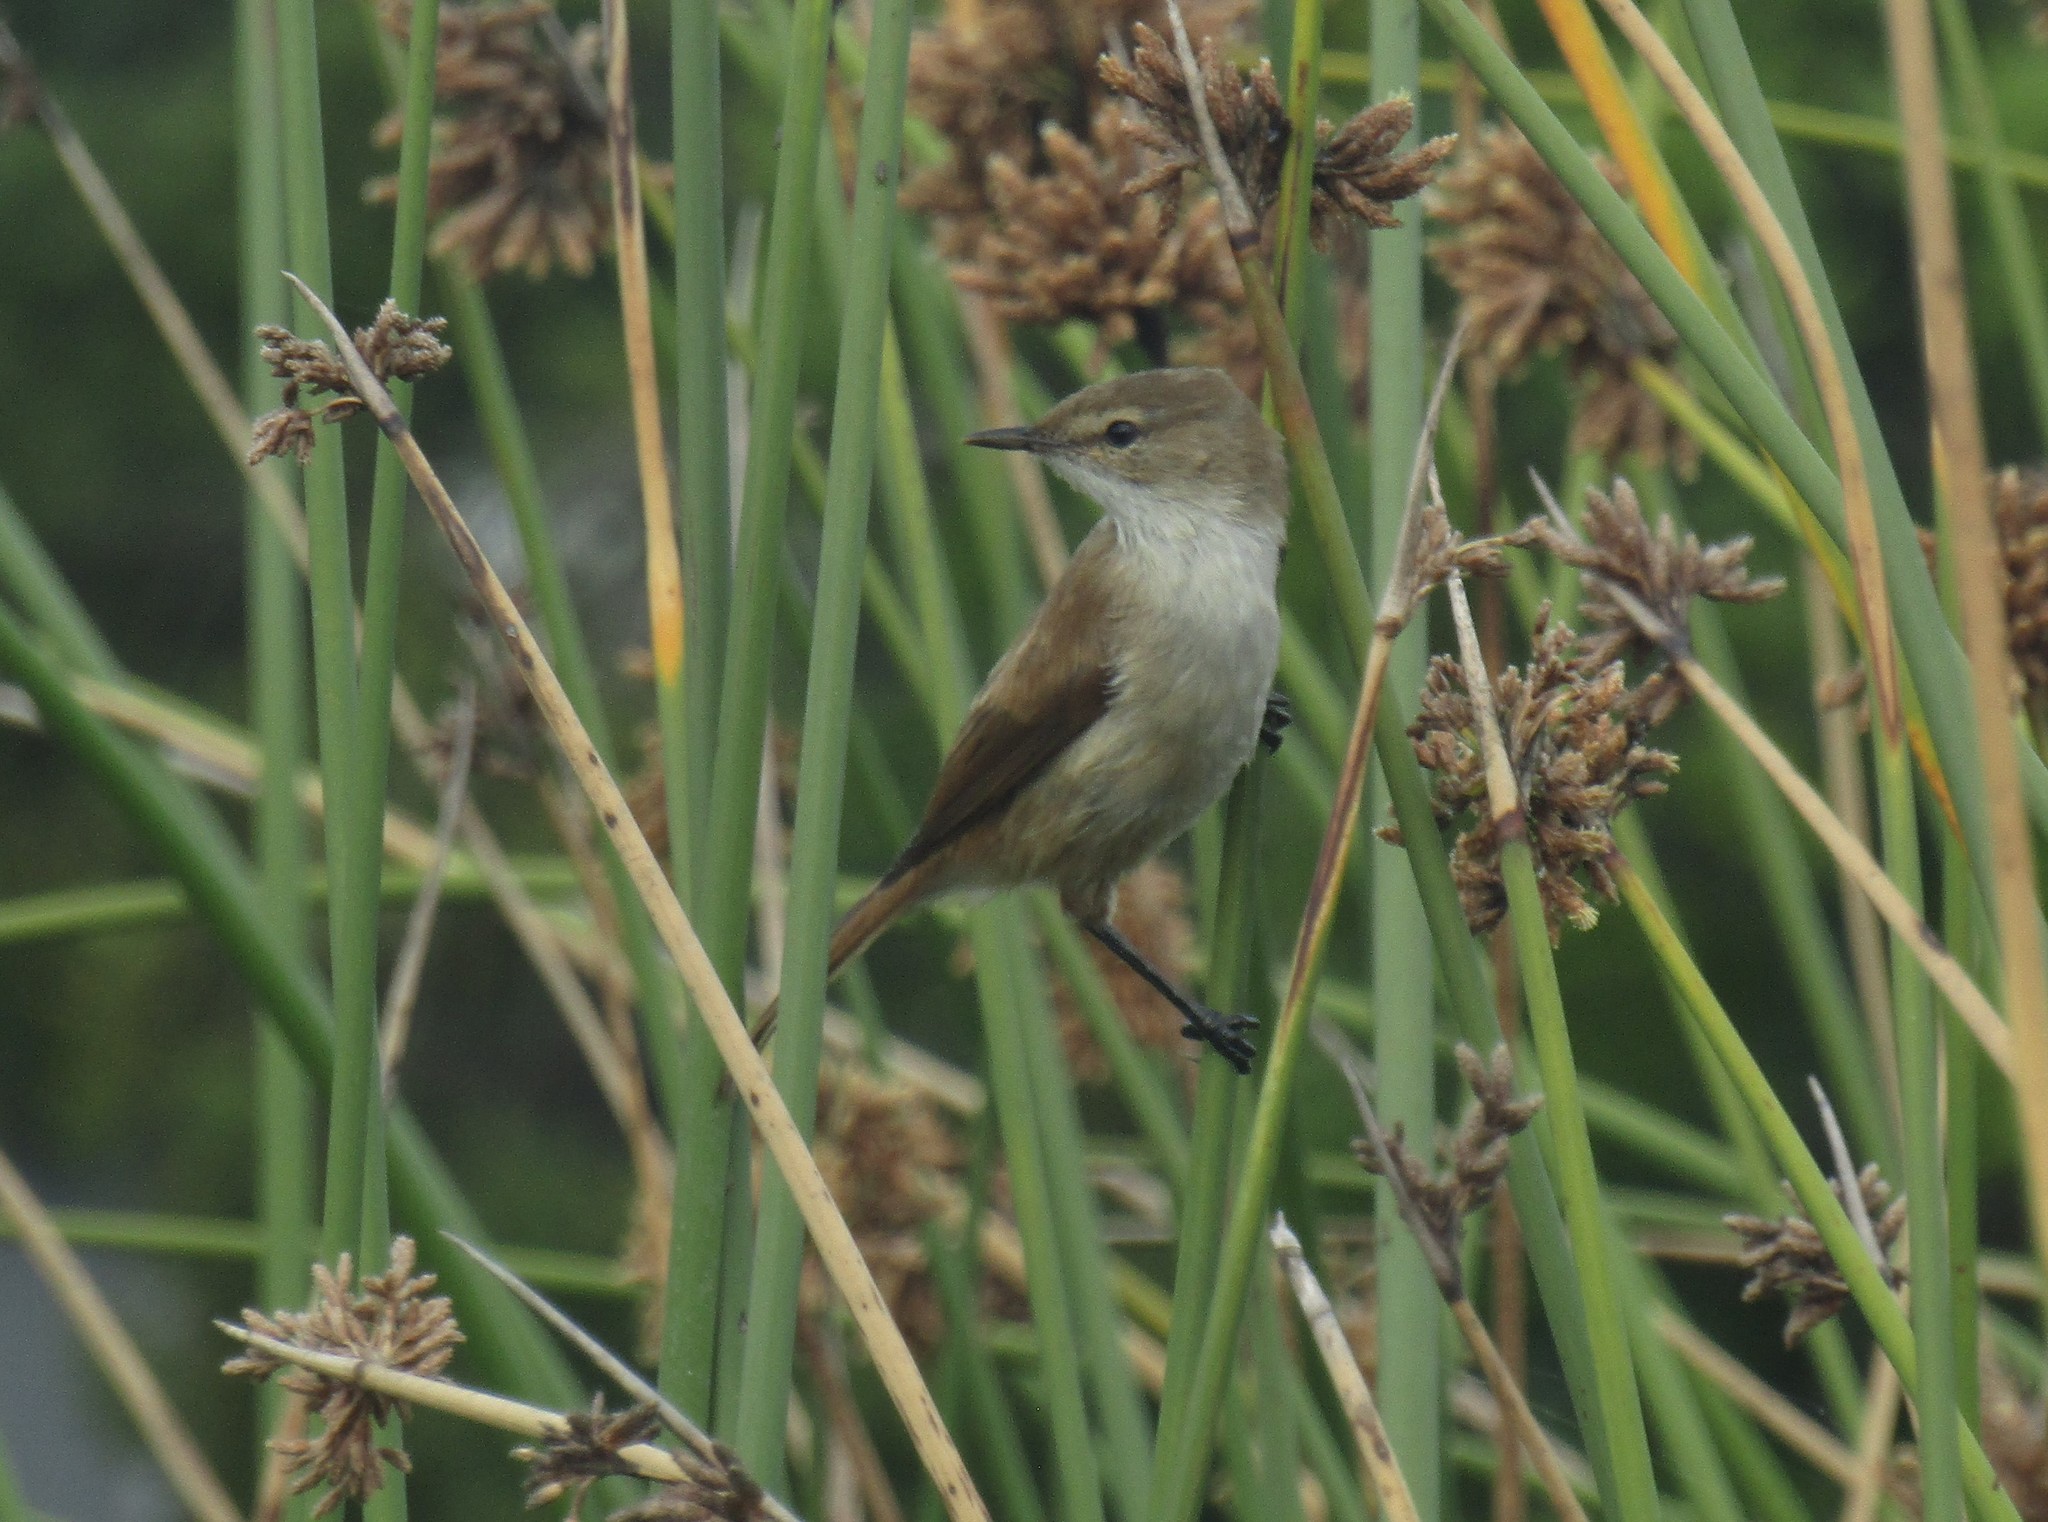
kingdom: Animalia
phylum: Chordata
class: Aves
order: Passeriformes
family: Acrocephalidae
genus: Acrocephalus
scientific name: Acrocephalus gracilirostris
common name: Lesser swamp warbler
